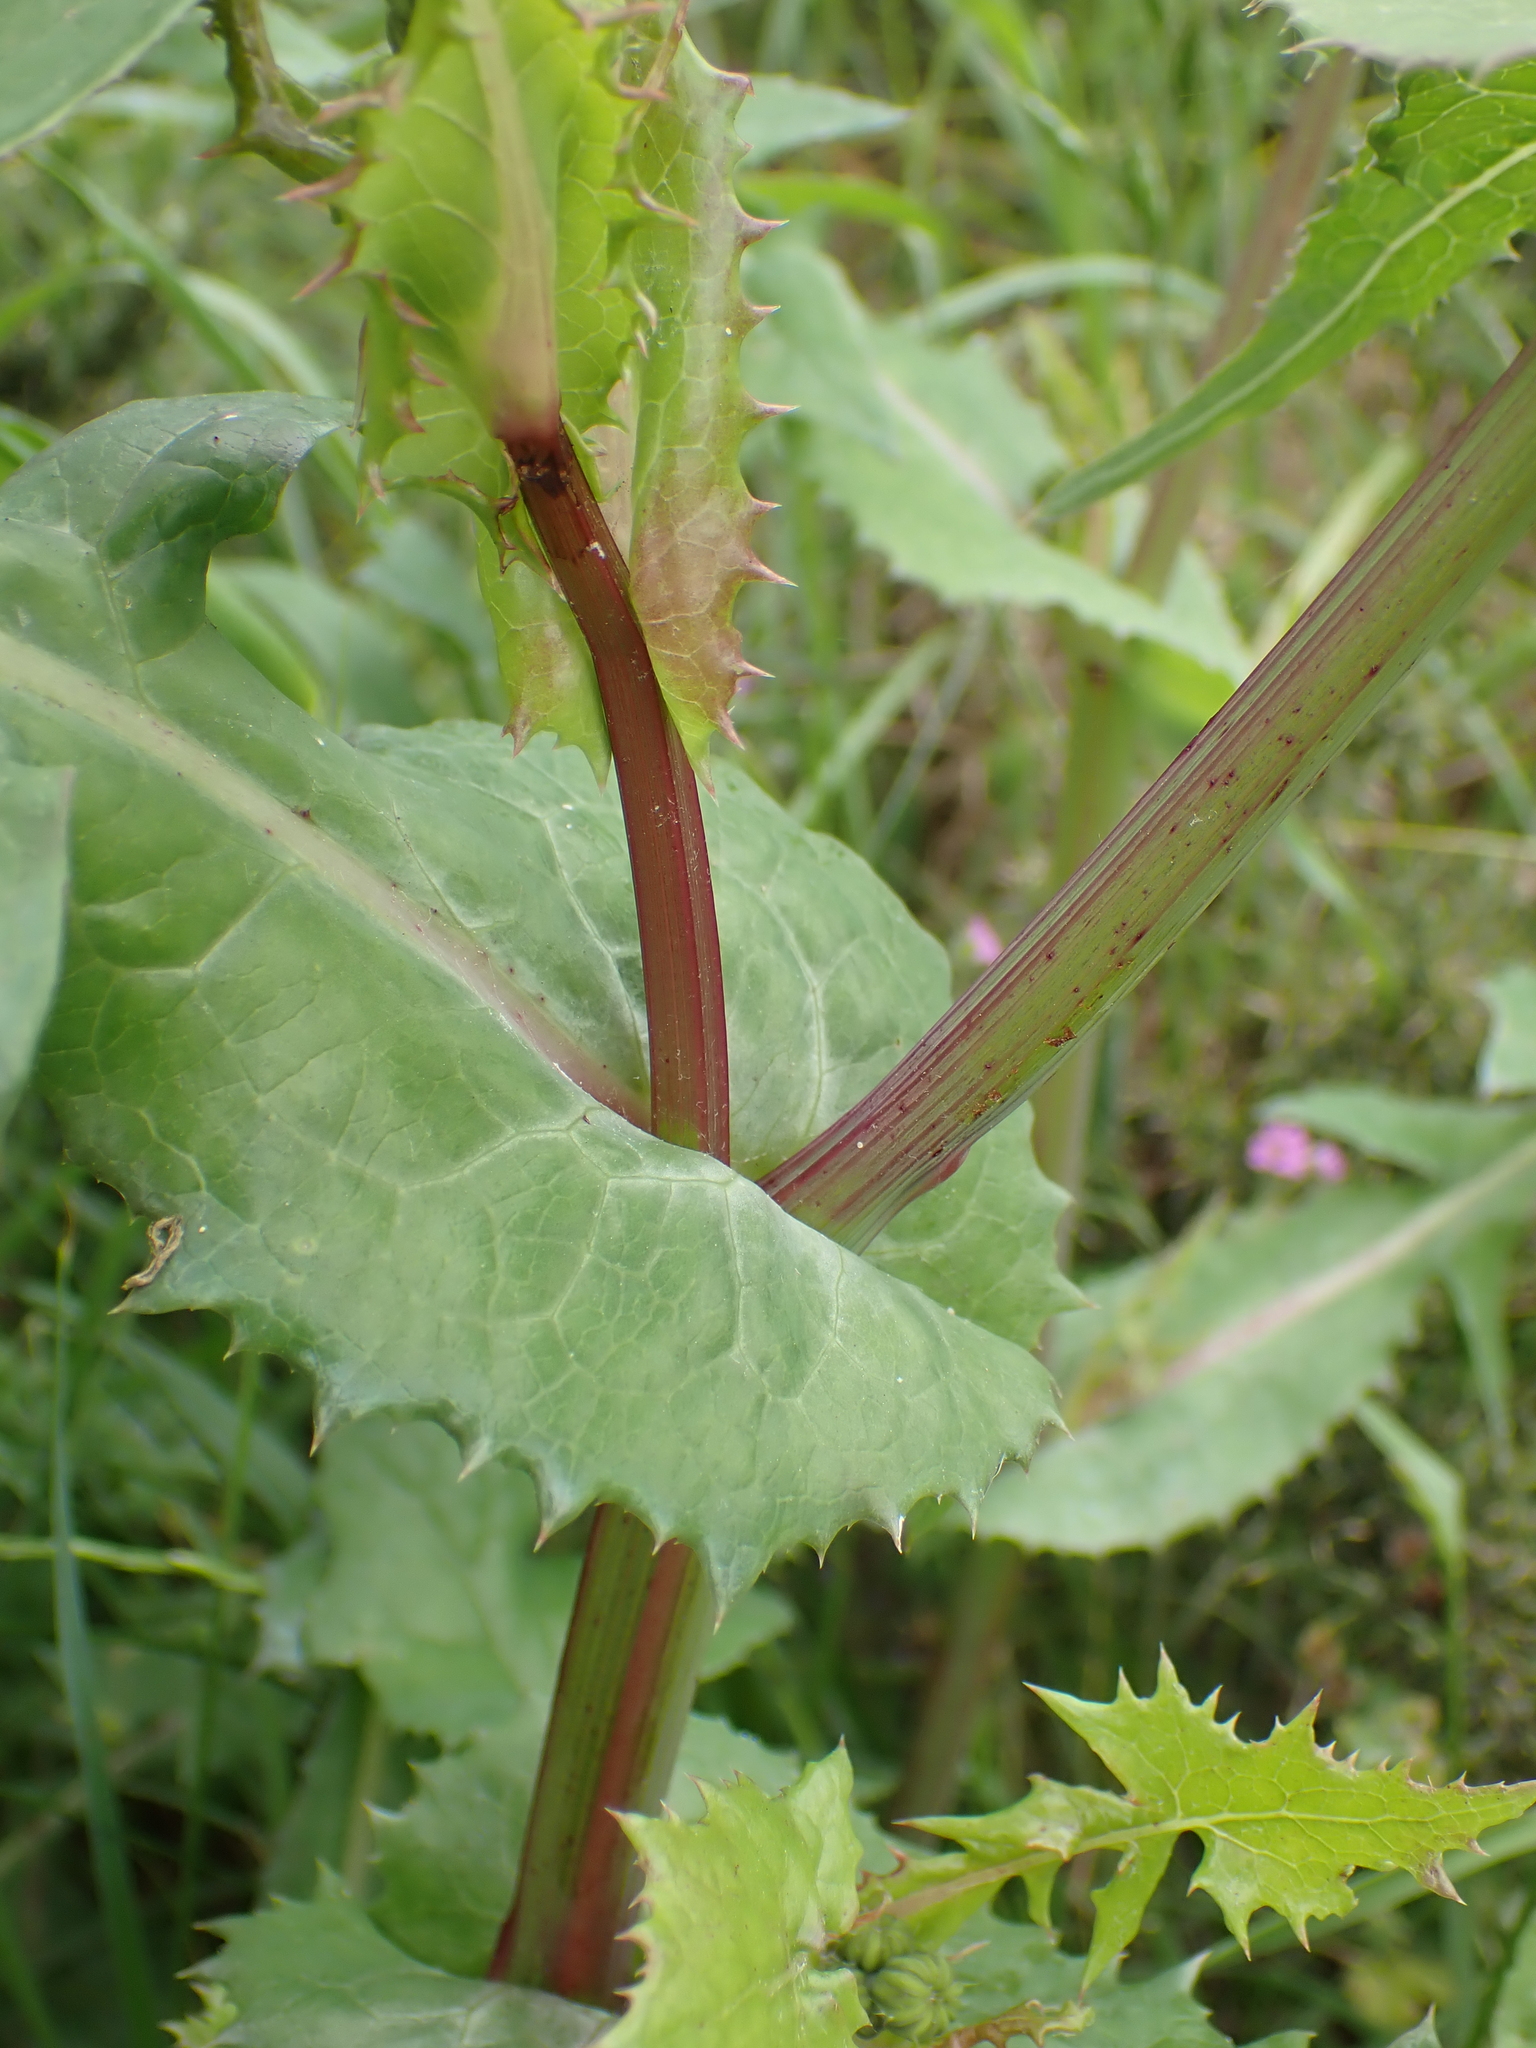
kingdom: Plantae
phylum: Tracheophyta
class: Magnoliopsida
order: Asterales
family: Asteraceae
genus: Sonchus
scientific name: Sonchus oleraceus
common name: Common sowthistle
